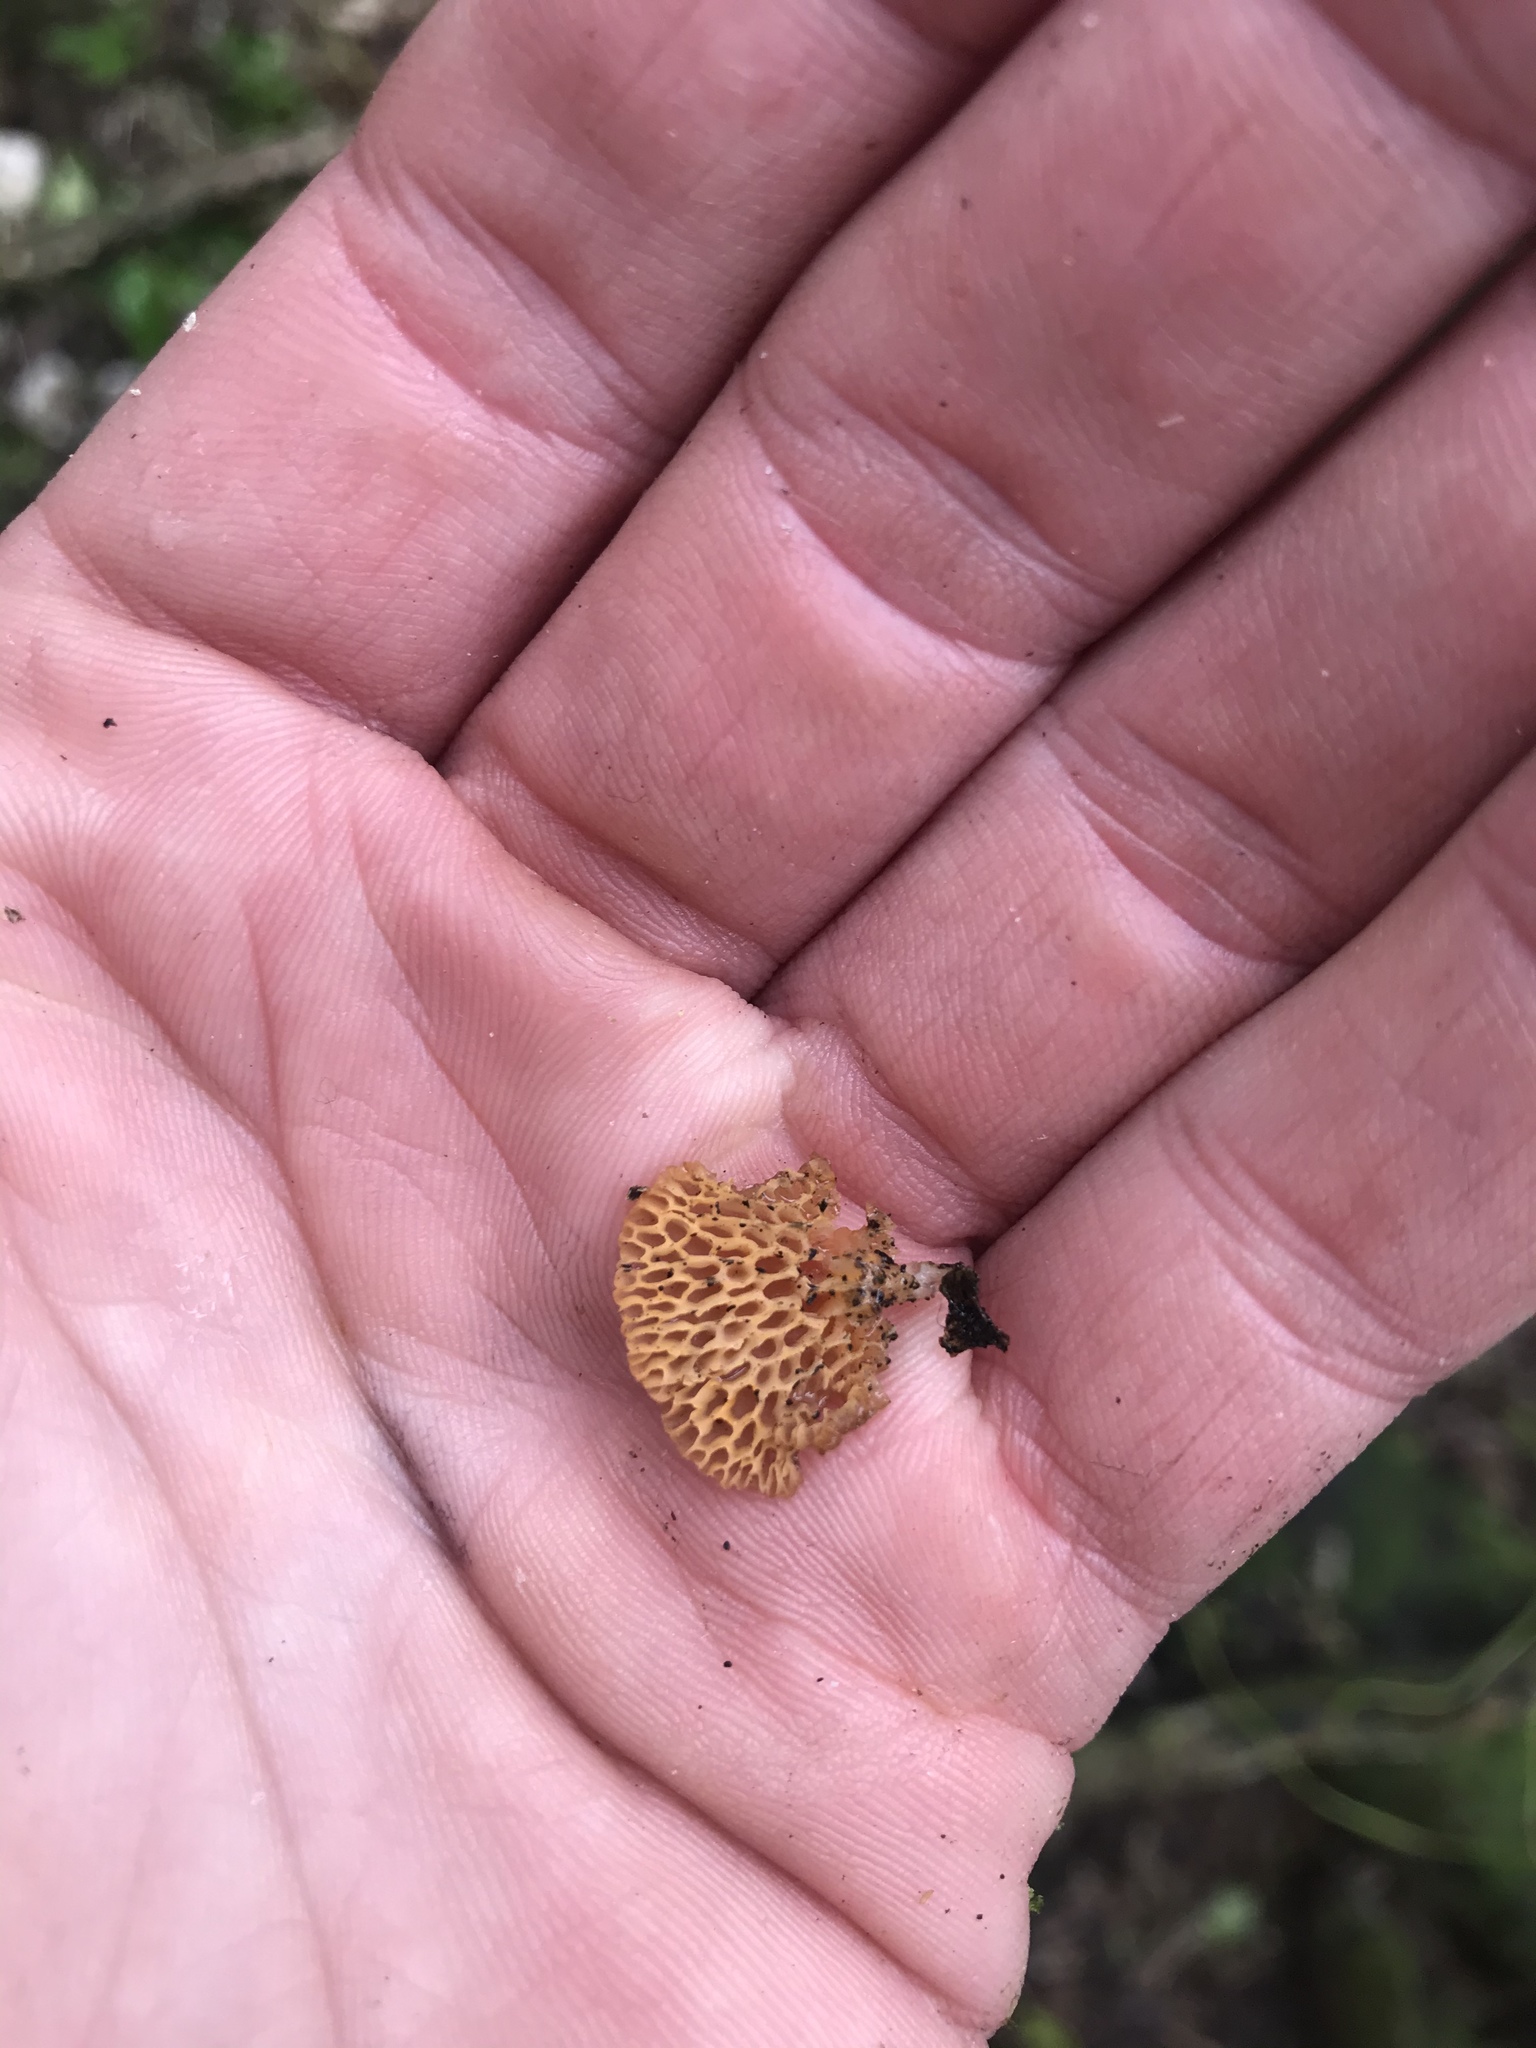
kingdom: Fungi
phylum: Basidiomycota
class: Agaricomycetes
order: Agaricales
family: Mycenaceae
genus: Favolaschia
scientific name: Favolaschia claudopus
